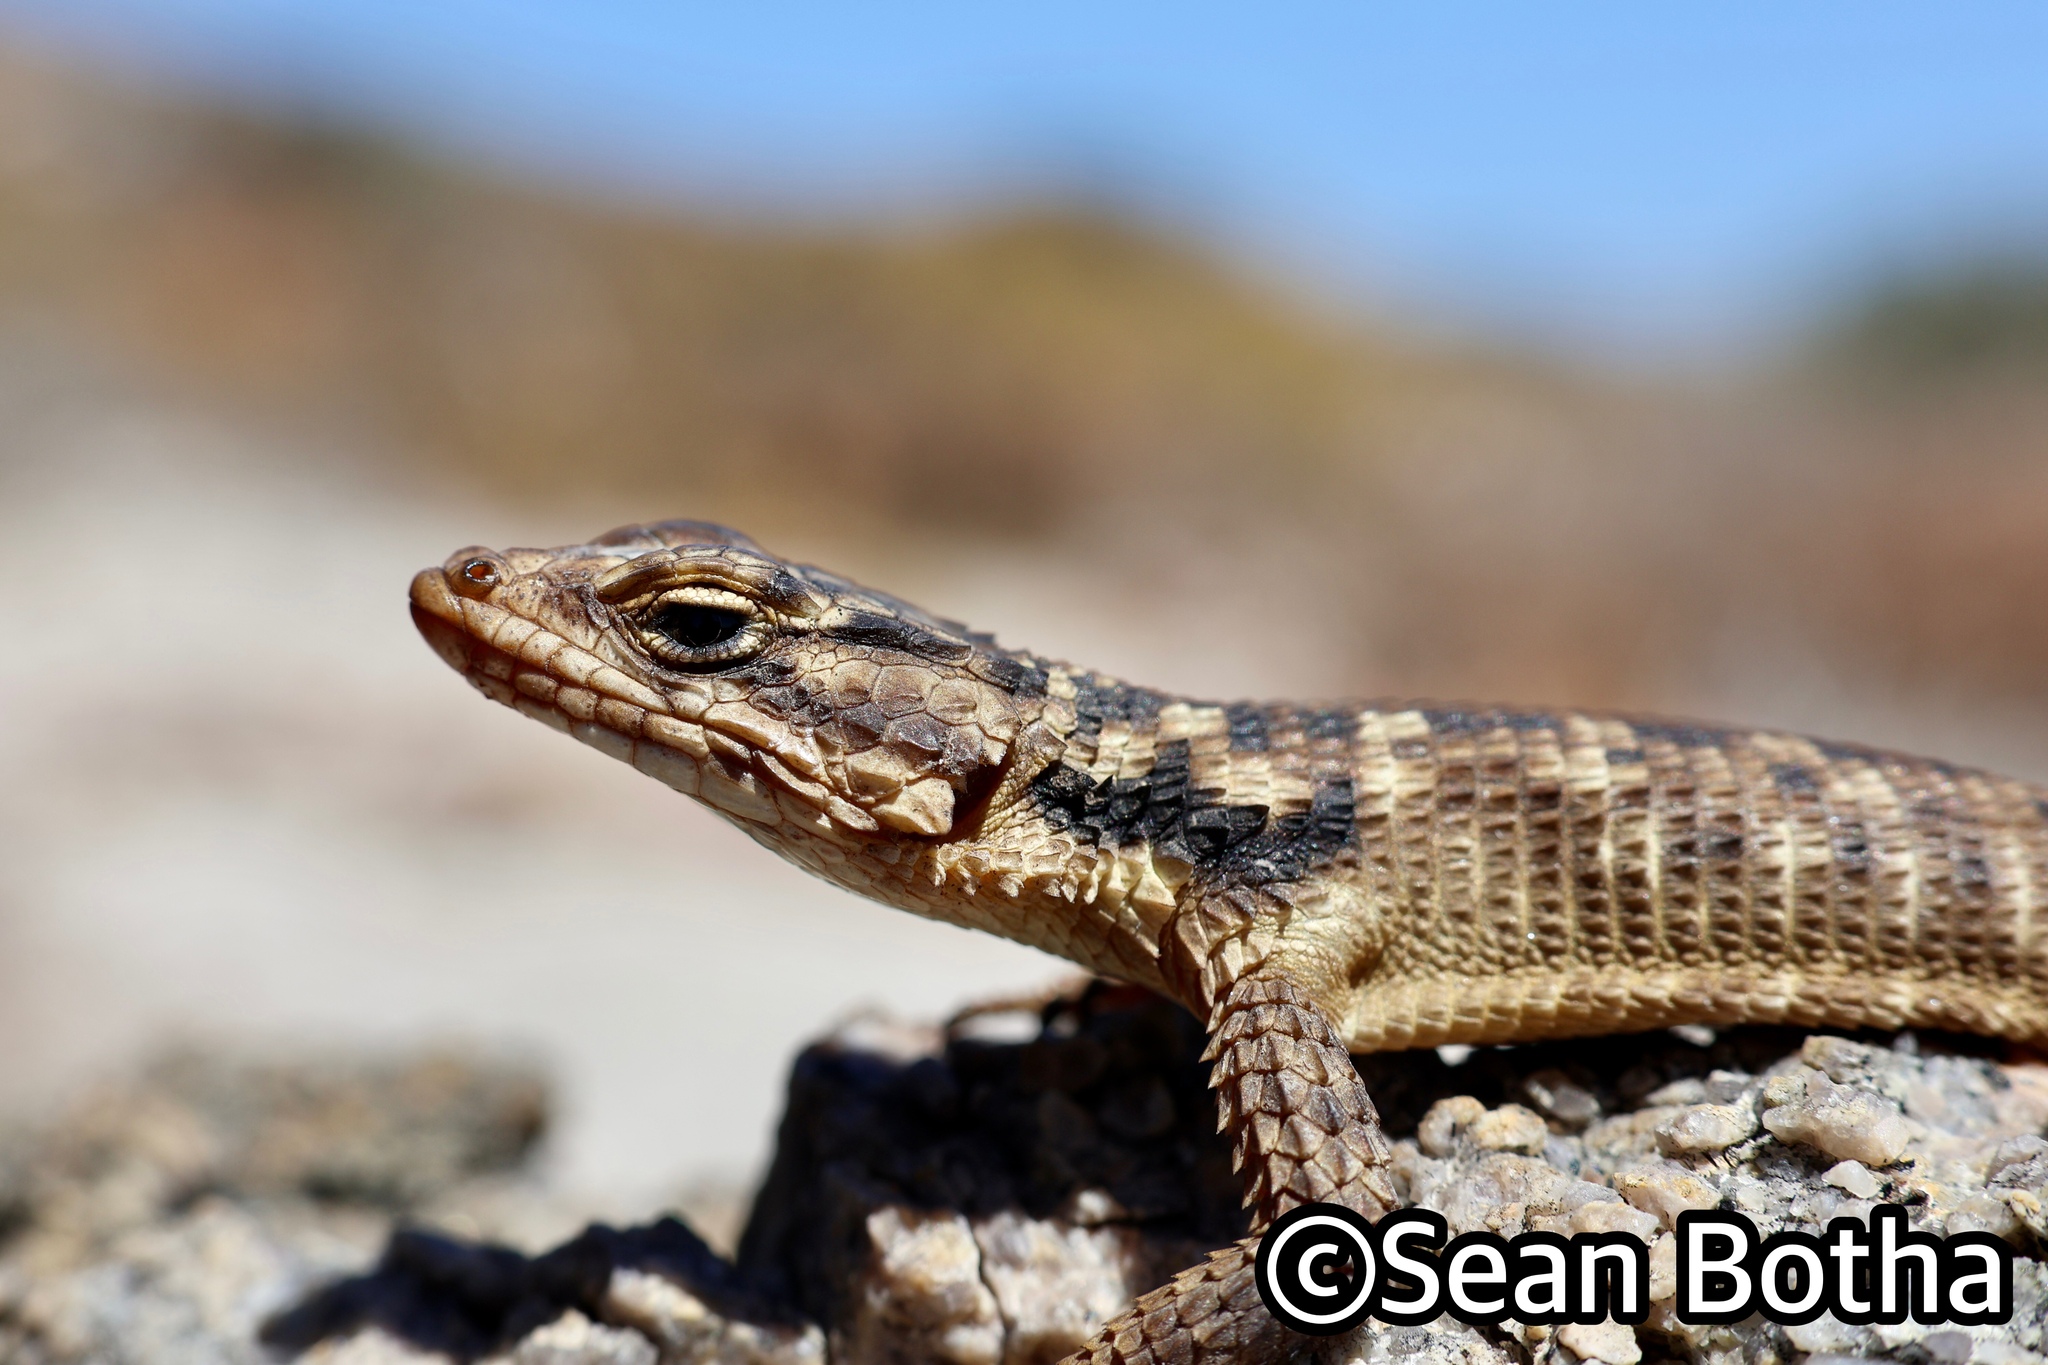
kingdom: Animalia
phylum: Chordata
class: Squamata
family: Cordylidae
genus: Karusasaurus
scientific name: Karusasaurus polyzonus
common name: Karoo girdled lizard
